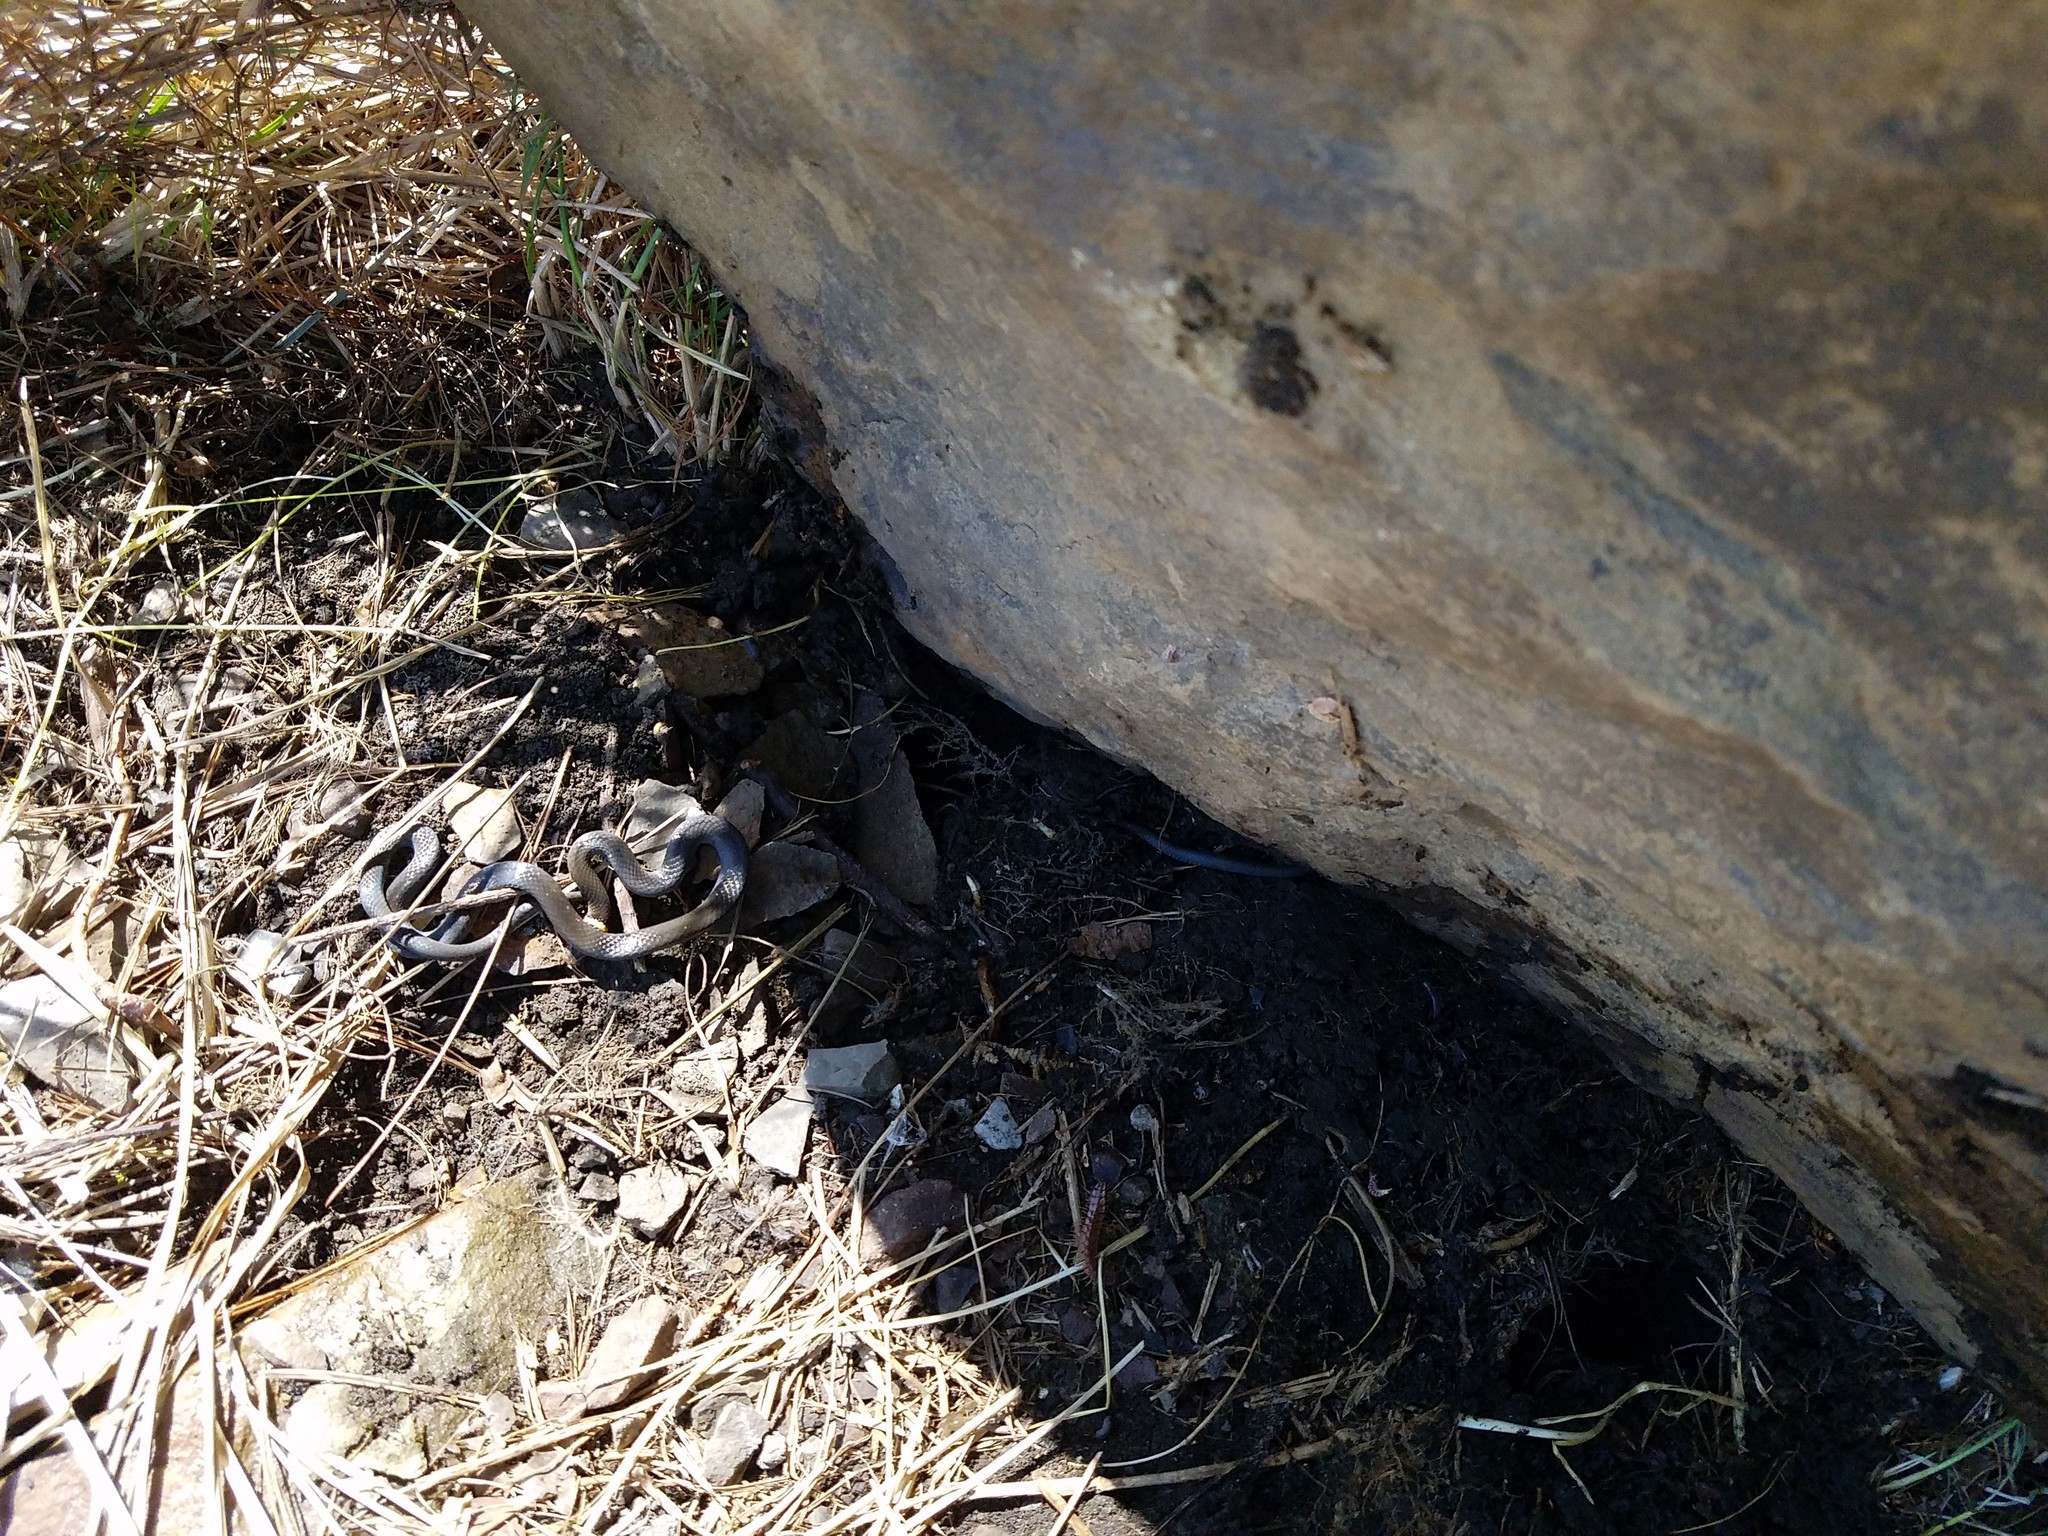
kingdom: Animalia
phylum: Chordata
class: Squamata
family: Colubridae
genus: Diadophis
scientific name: Diadophis punctatus
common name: Ringneck snake
